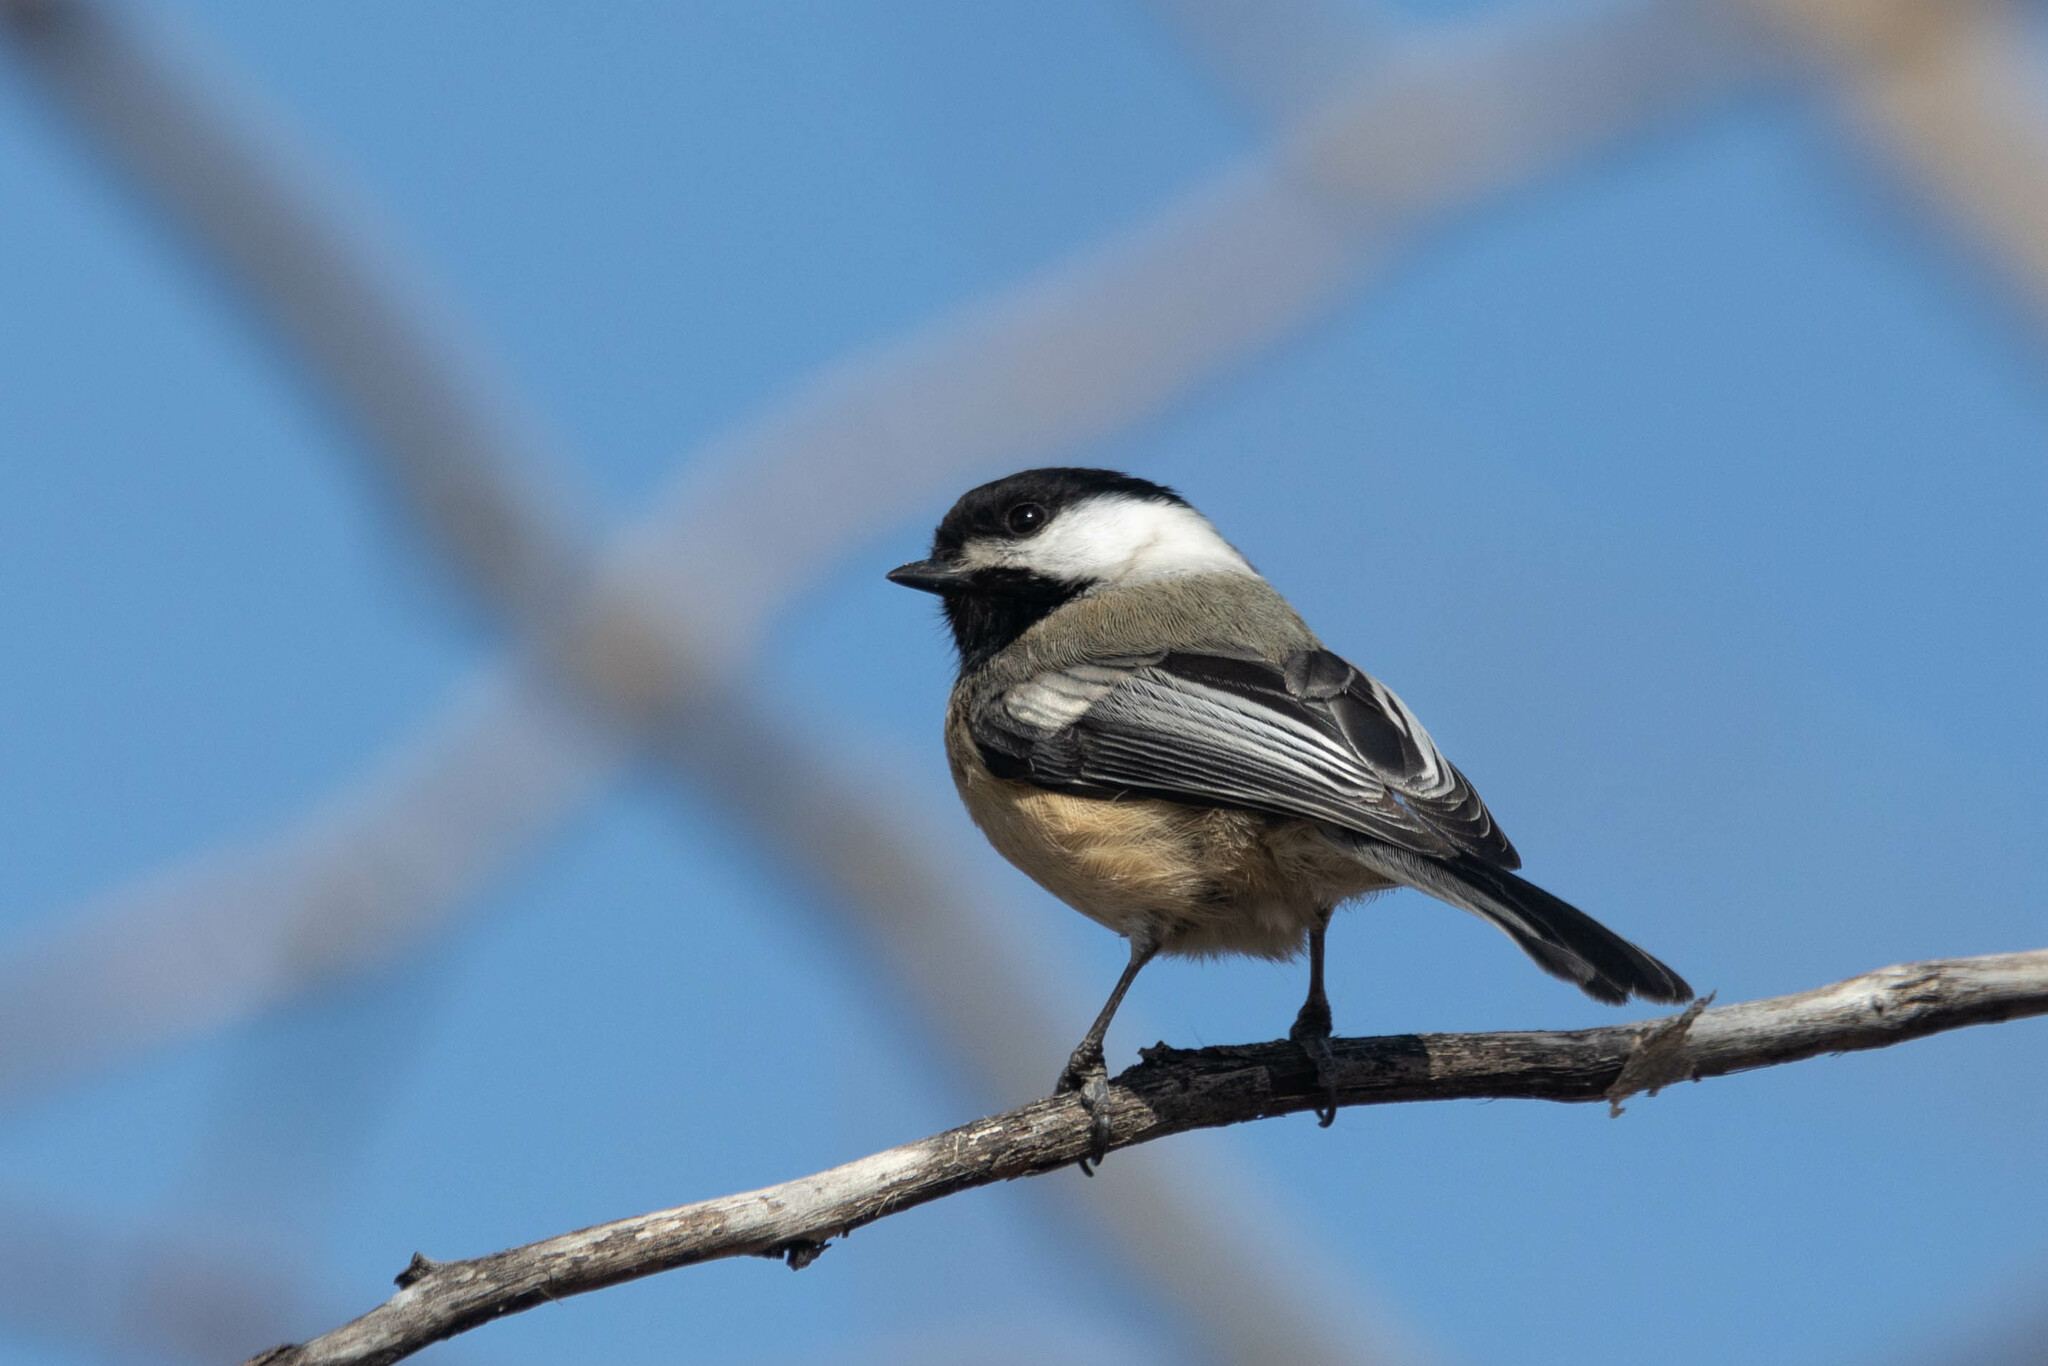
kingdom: Animalia
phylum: Chordata
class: Aves
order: Passeriformes
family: Paridae
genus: Poecile
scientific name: Poecile atricapillus
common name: Black-capped chickadee
